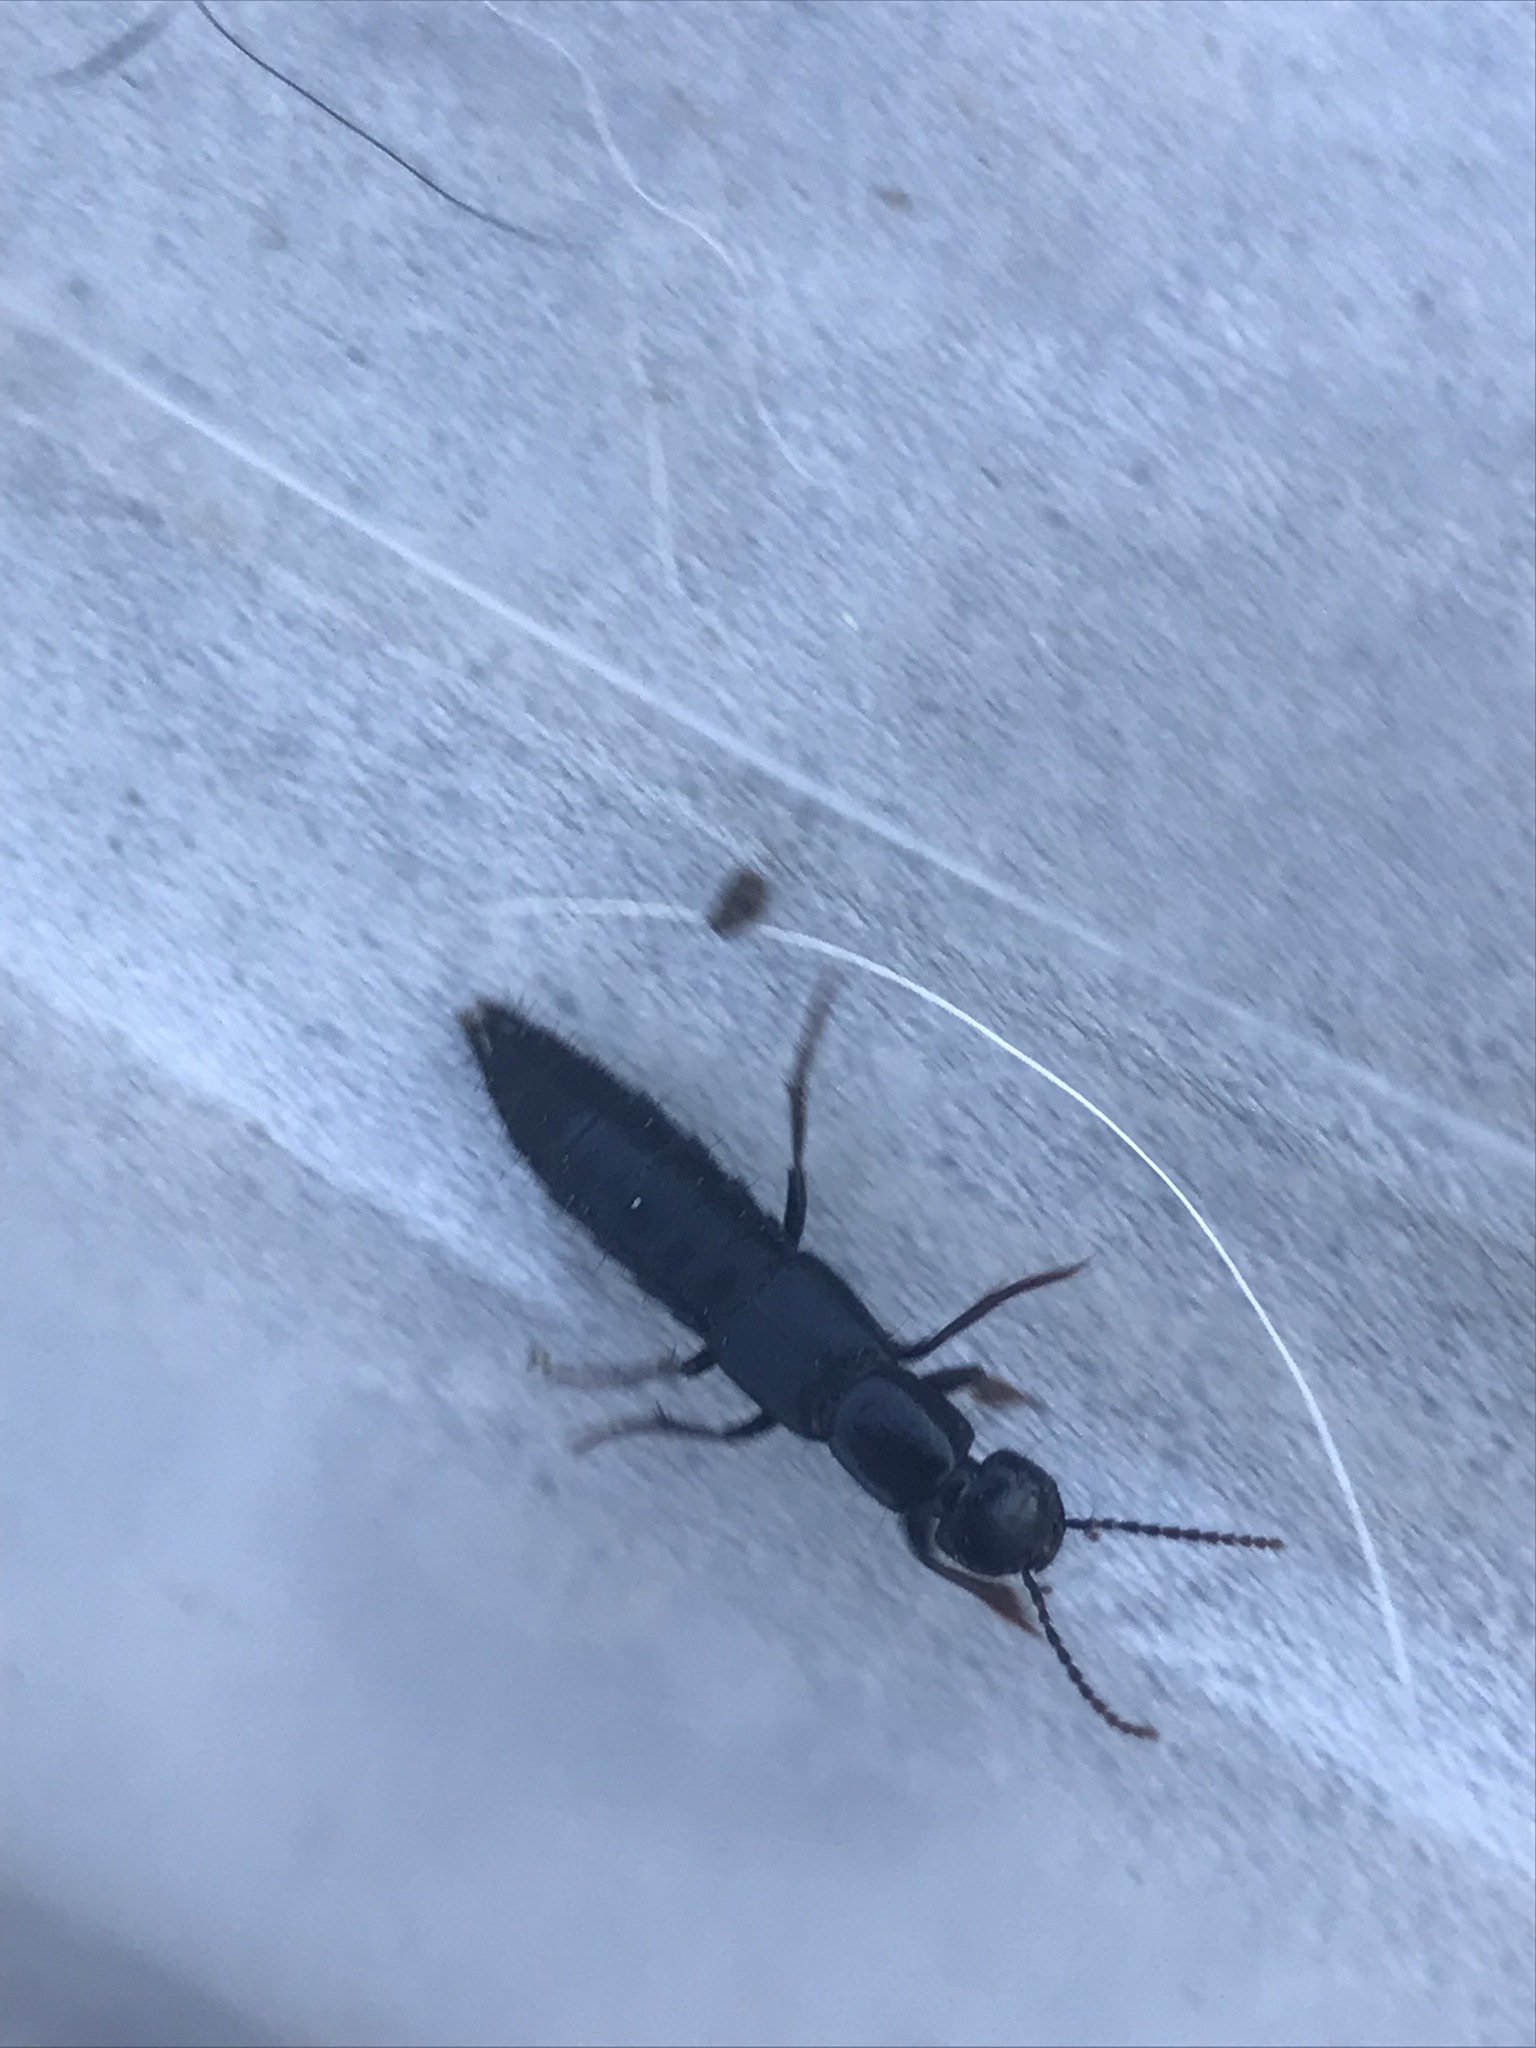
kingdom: Animalia
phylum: Arthropoda
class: Insecta
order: Coleoptera
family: Staphylinidae
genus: Tasgius
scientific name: Tasgius ater
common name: Staph beetle
